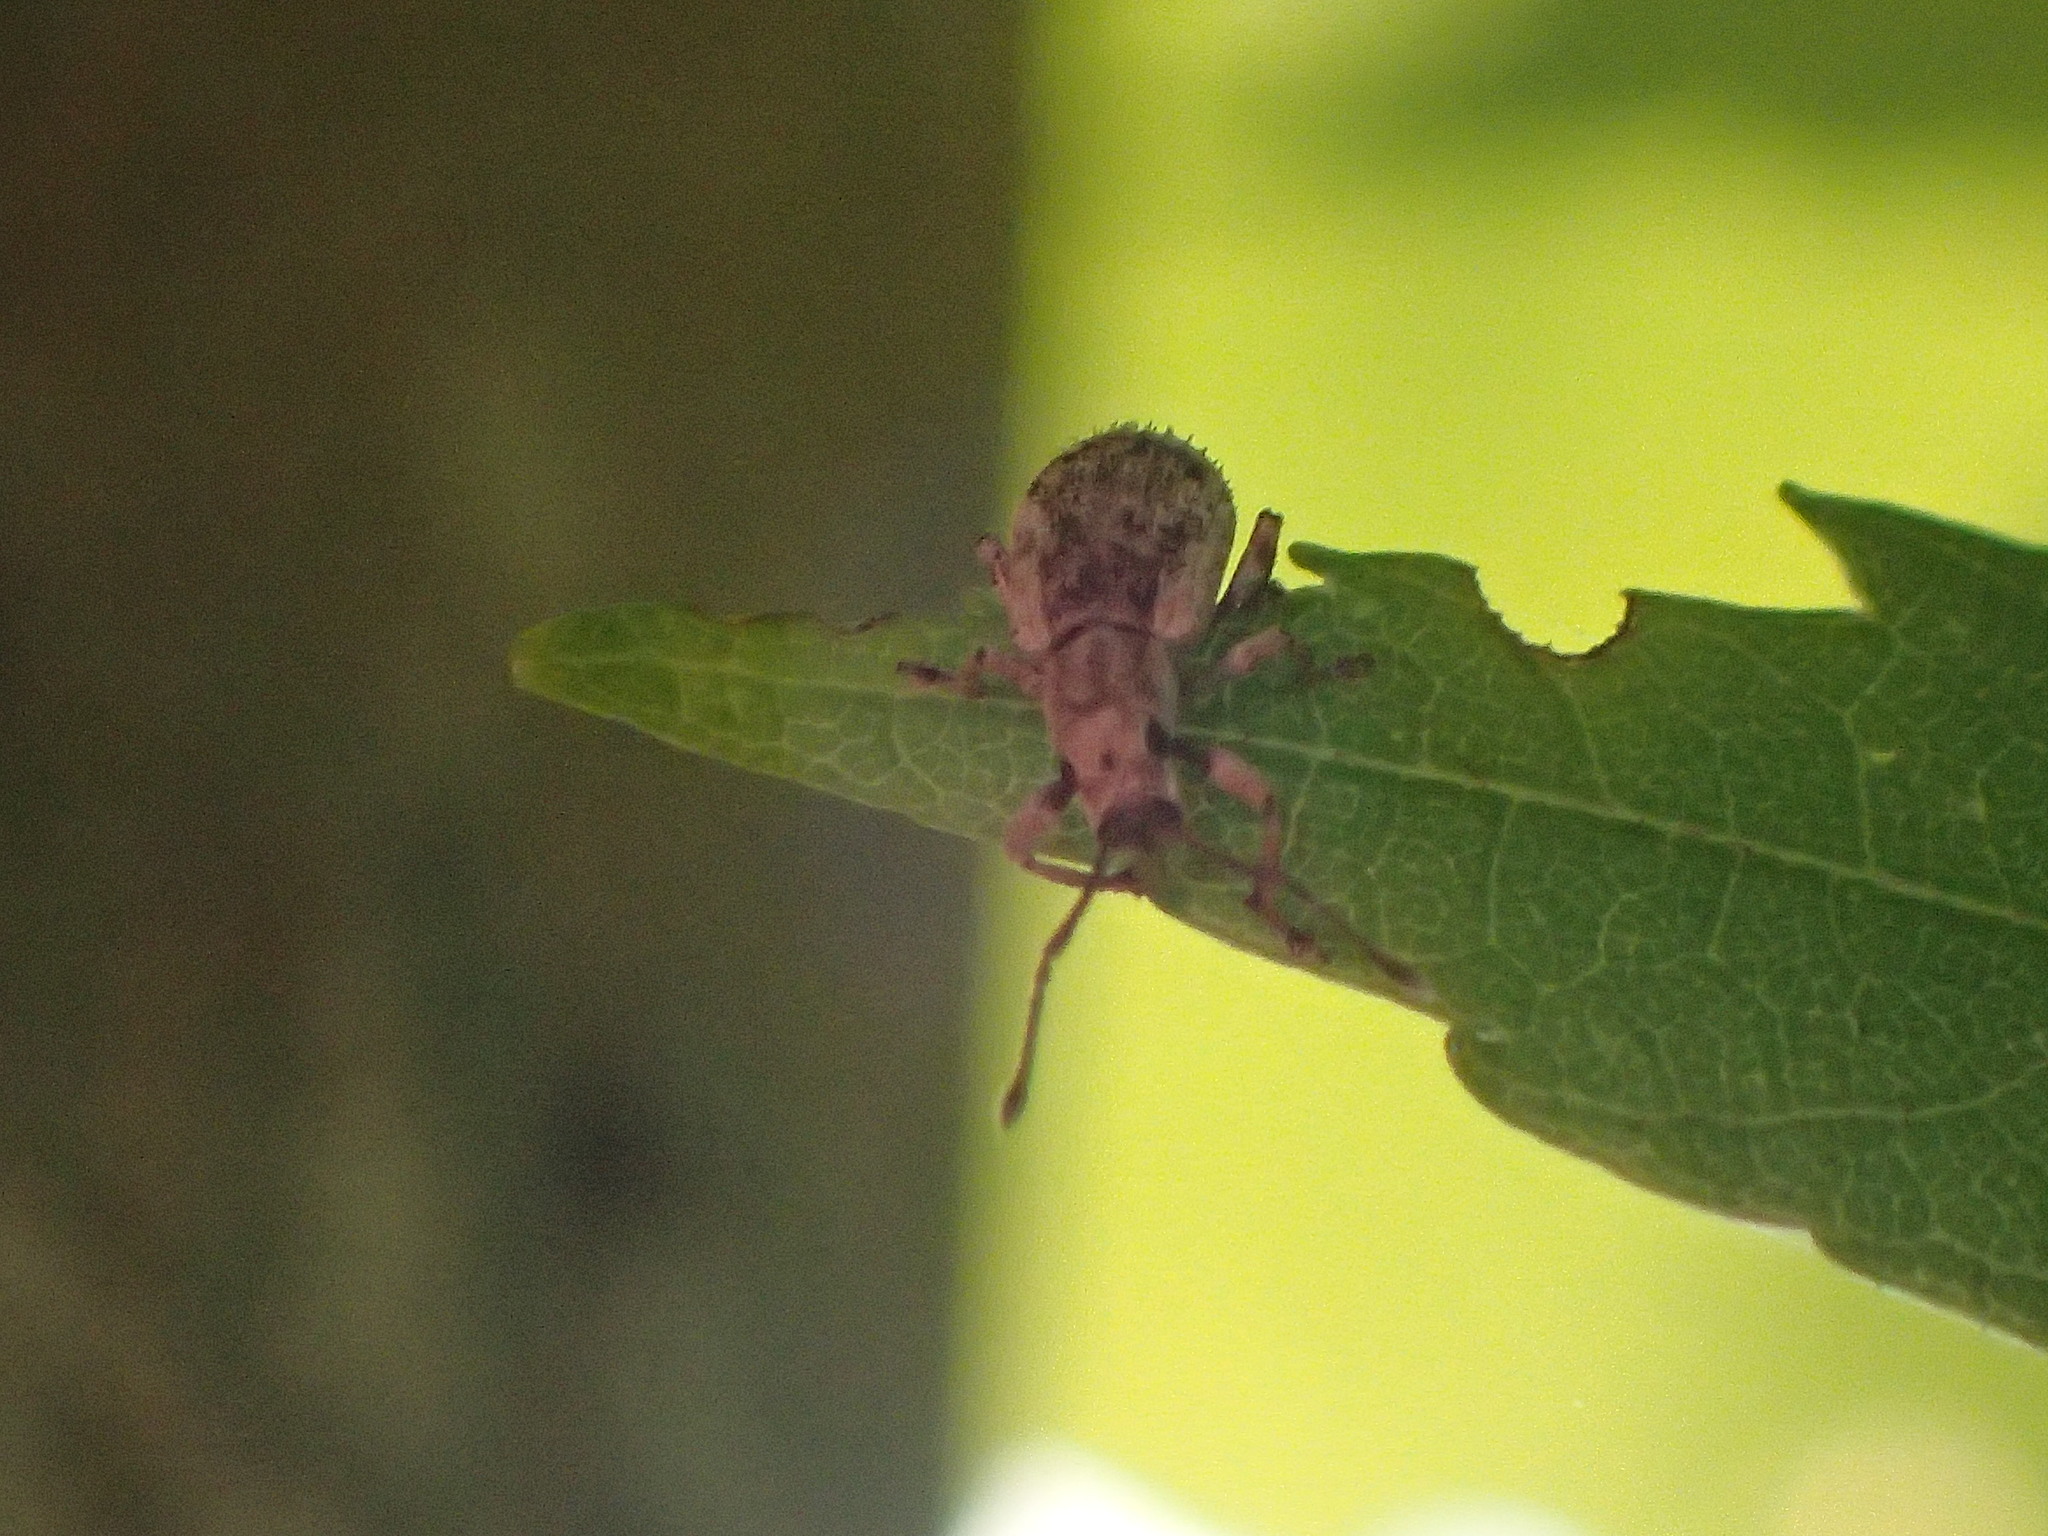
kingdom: Animalia
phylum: Arthropoda
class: Insecta
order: Coleoptera
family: Curculionidae
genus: Pseudoedophrys
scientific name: Pseudoedophrys hilleri
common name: Weevil
